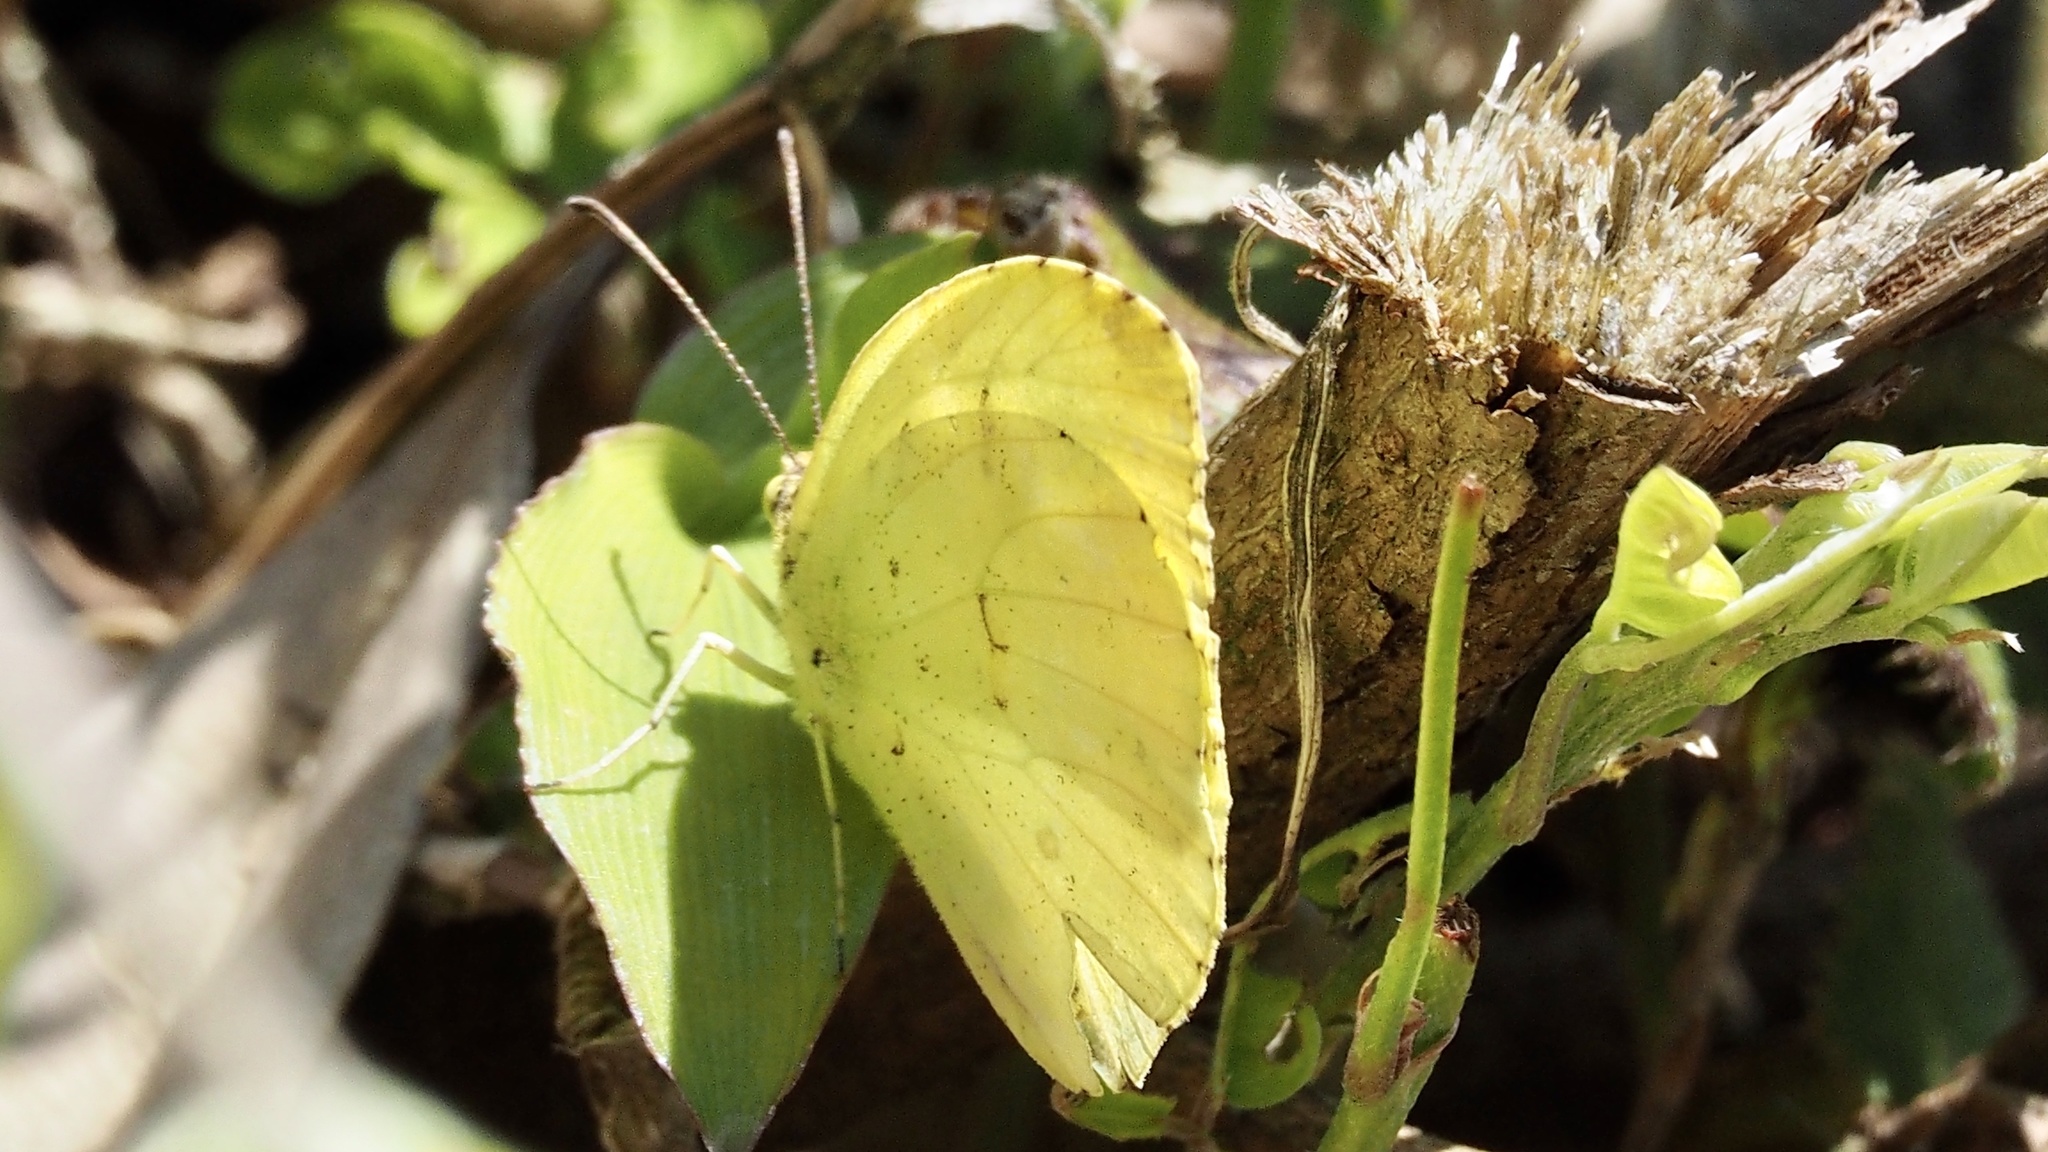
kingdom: Animalia
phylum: Arthropoda
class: Insecta
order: Lepidoptera
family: Pieridae
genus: Eurema
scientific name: Eurema mandarina
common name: Japanese common grass yellow
